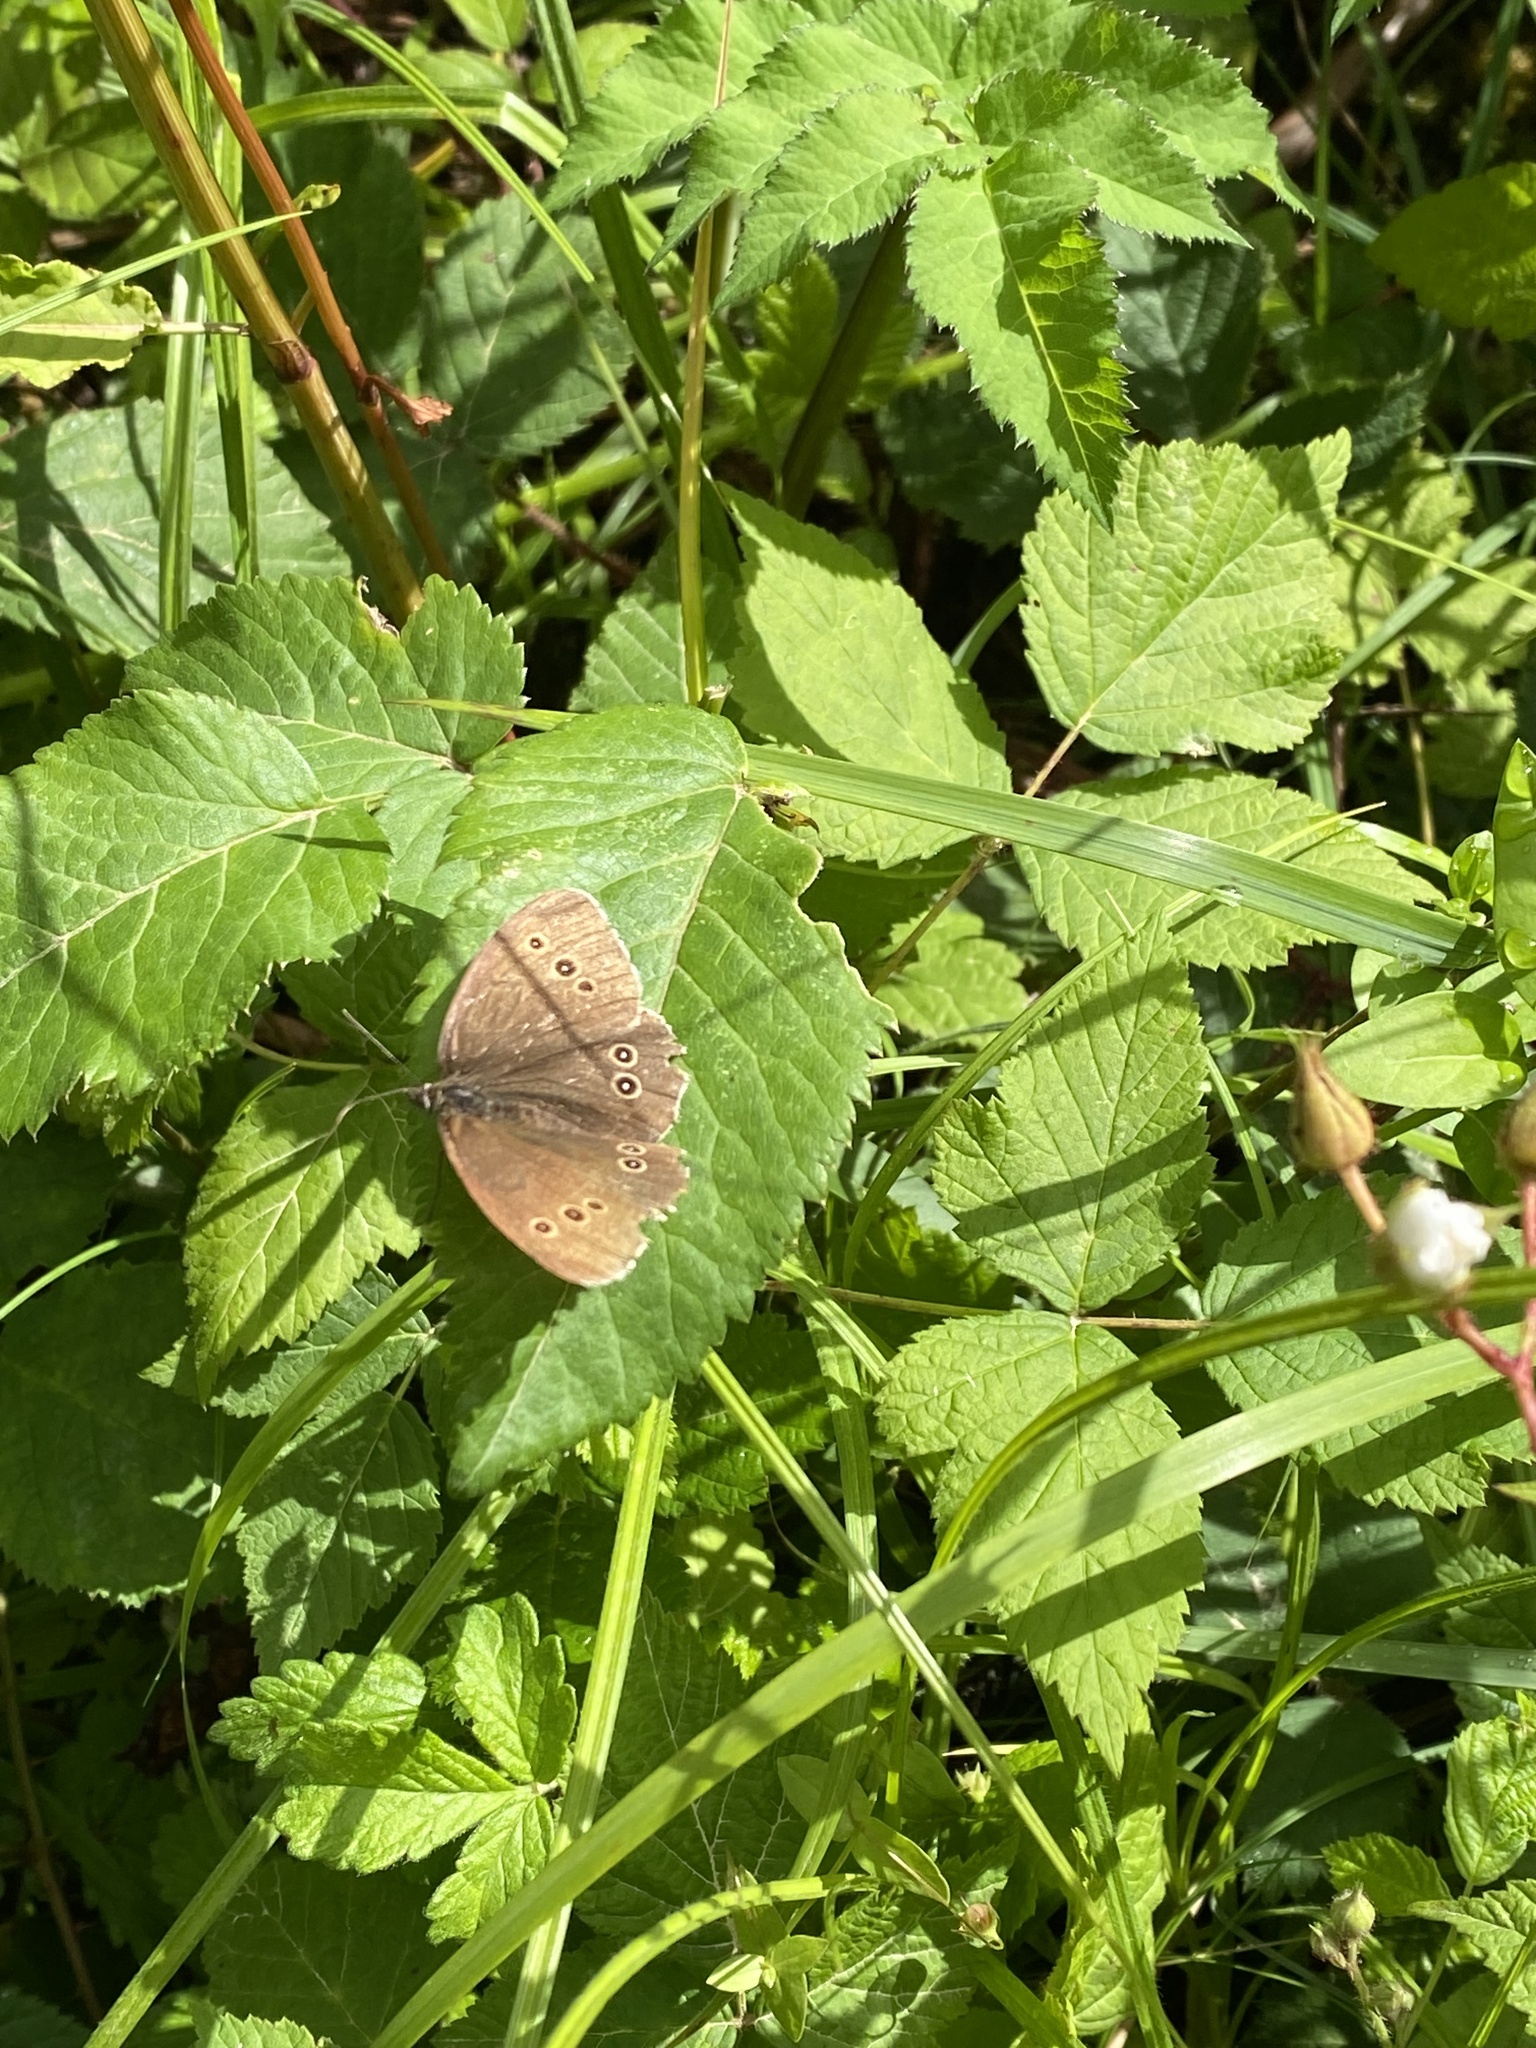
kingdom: Animalia
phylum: Arthropoda
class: Insecta
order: Lepidoptera
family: Nymphalidae
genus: Aphantopus
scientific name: Aphantopus hyperantus
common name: Ringlet
